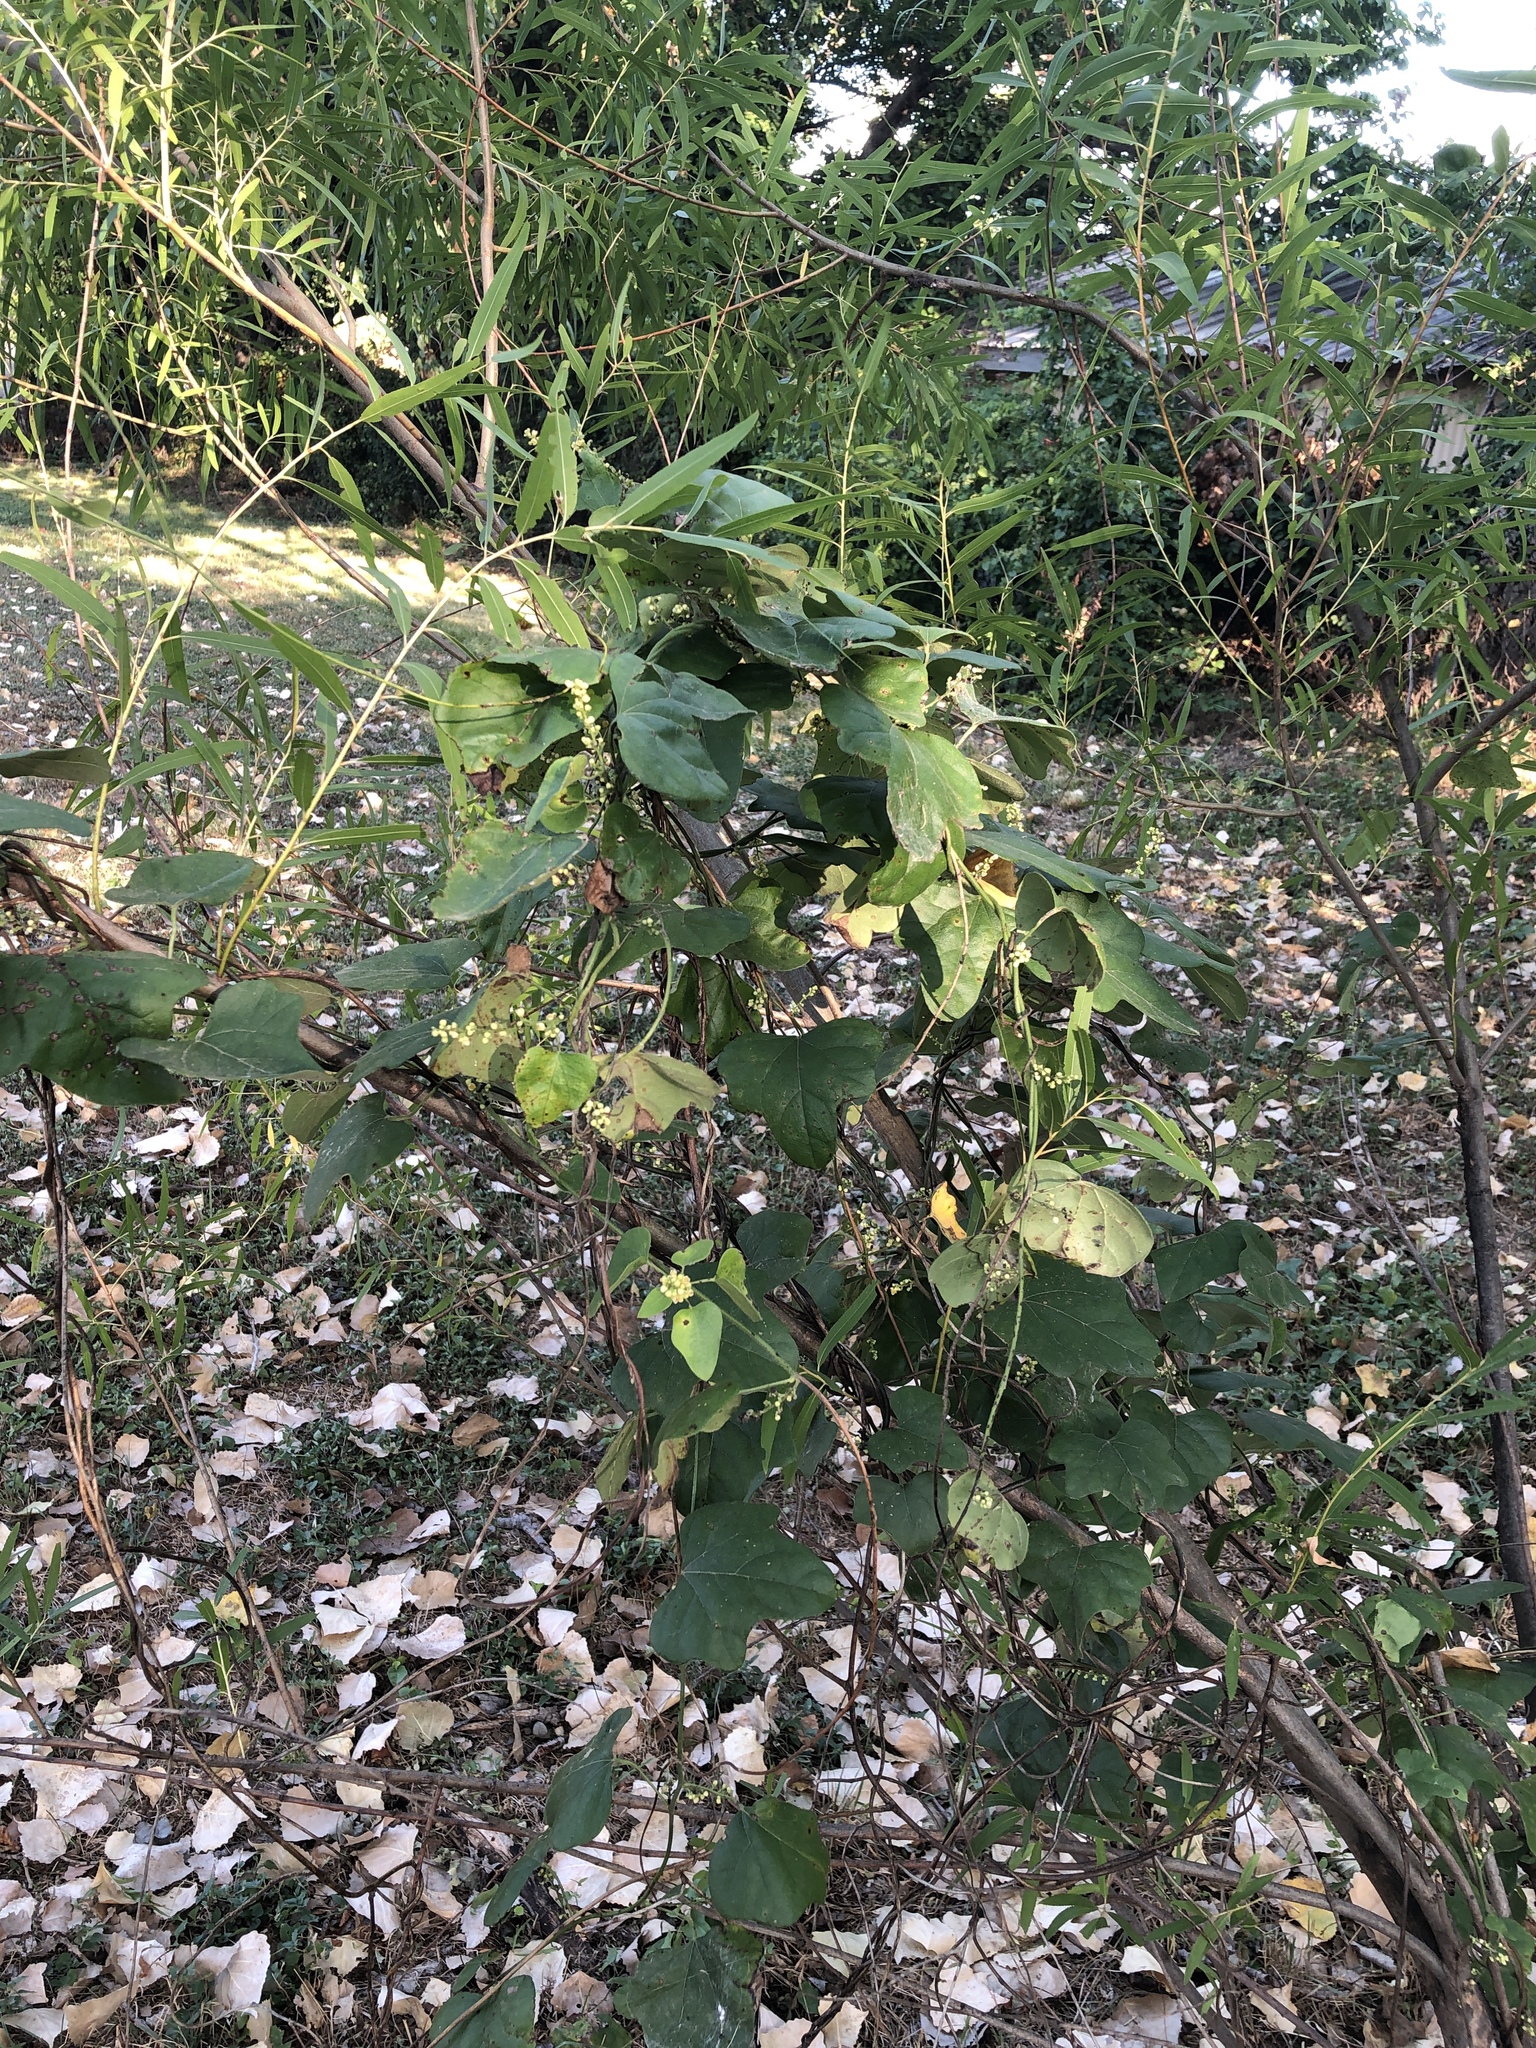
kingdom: Plantae
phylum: Tracheophyta
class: Magnoliopsida
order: Ranunculales
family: Menispermaceae
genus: Cocculus
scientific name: Cocculus carolinus
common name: Carolina moonseed
